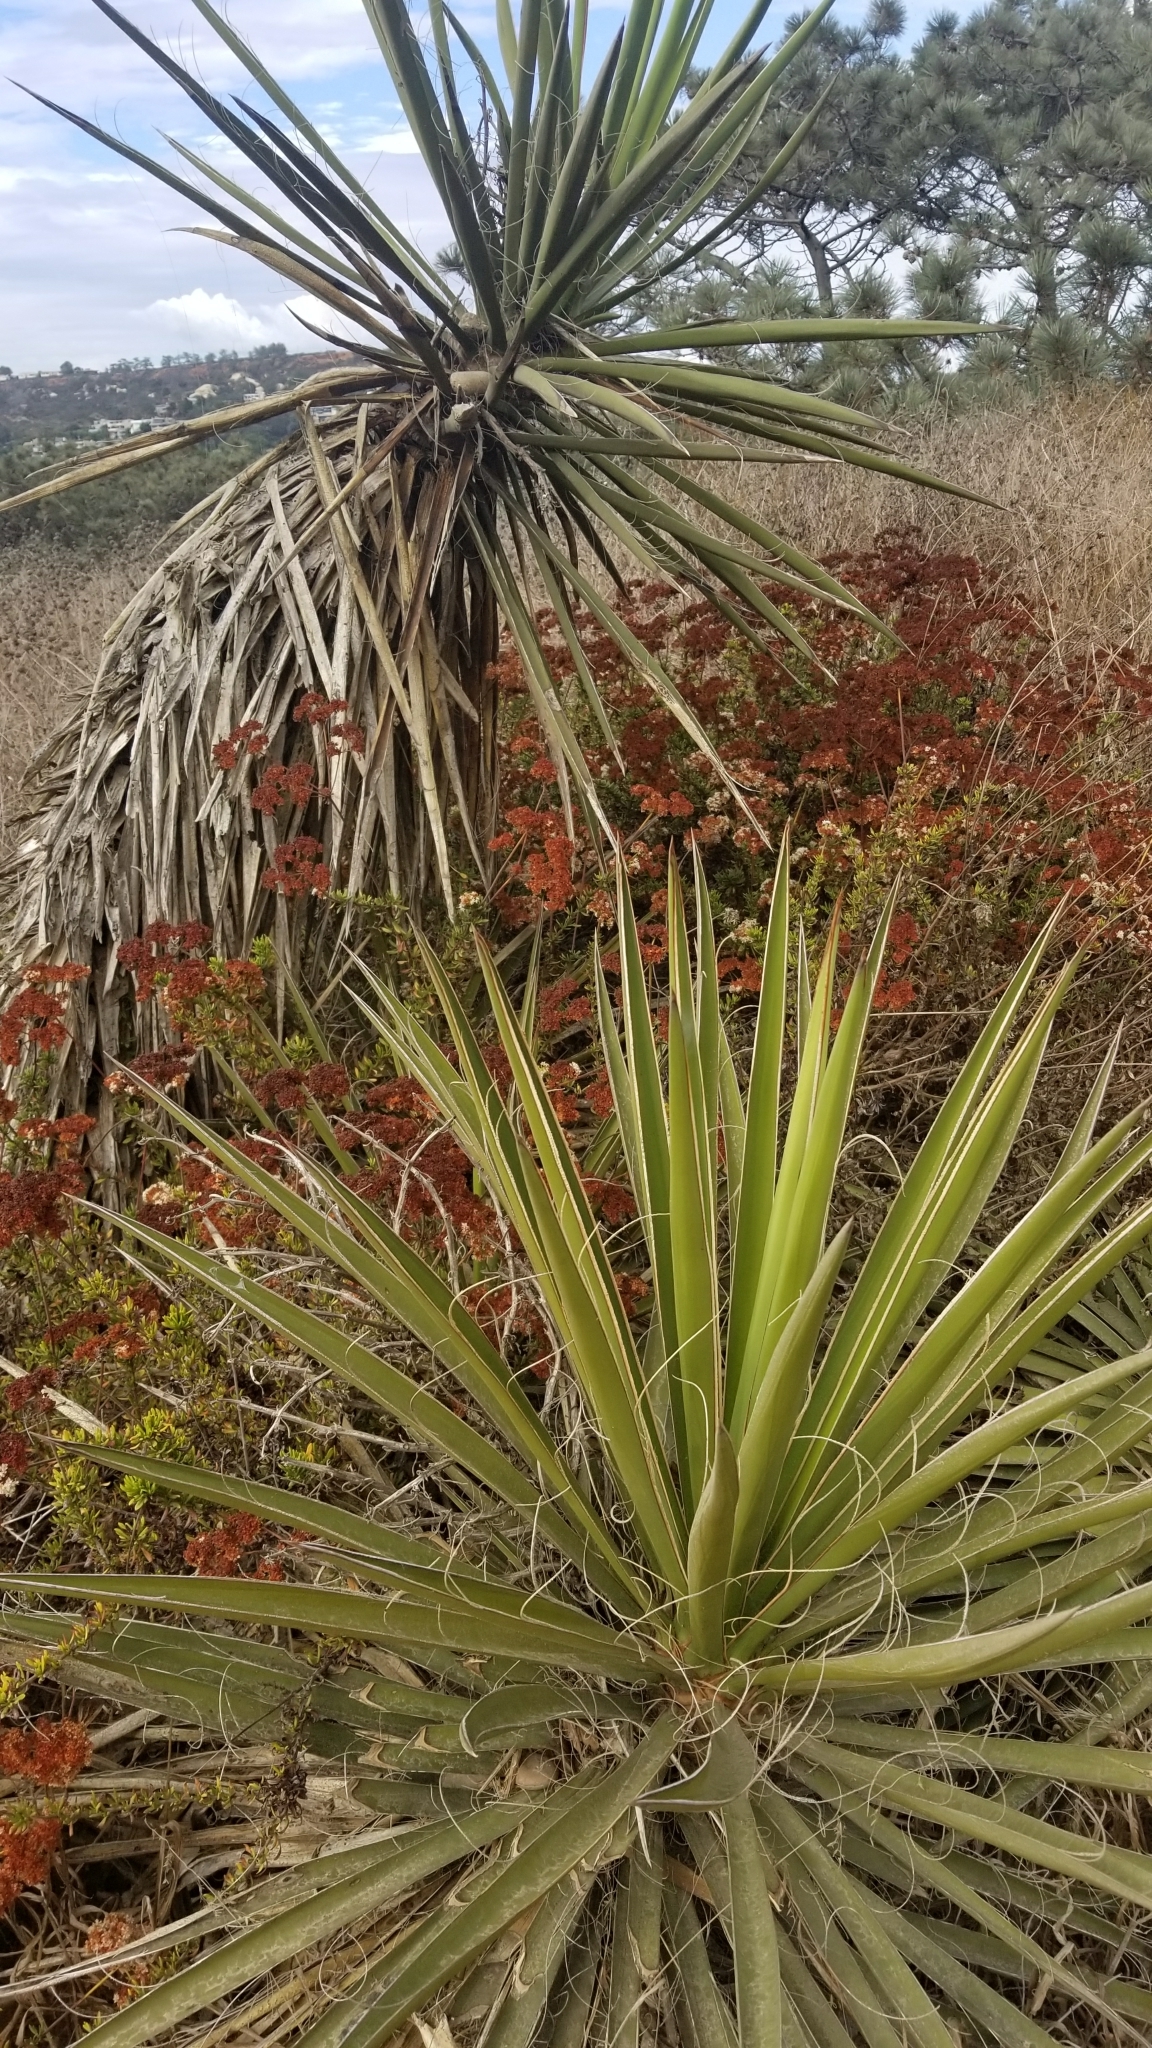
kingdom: Plantae
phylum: Tracheophyta
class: Liliopsida
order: Asparagales
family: Asparagaceae
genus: Yucca
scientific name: Yucca schidigera
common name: Mojave yucca
